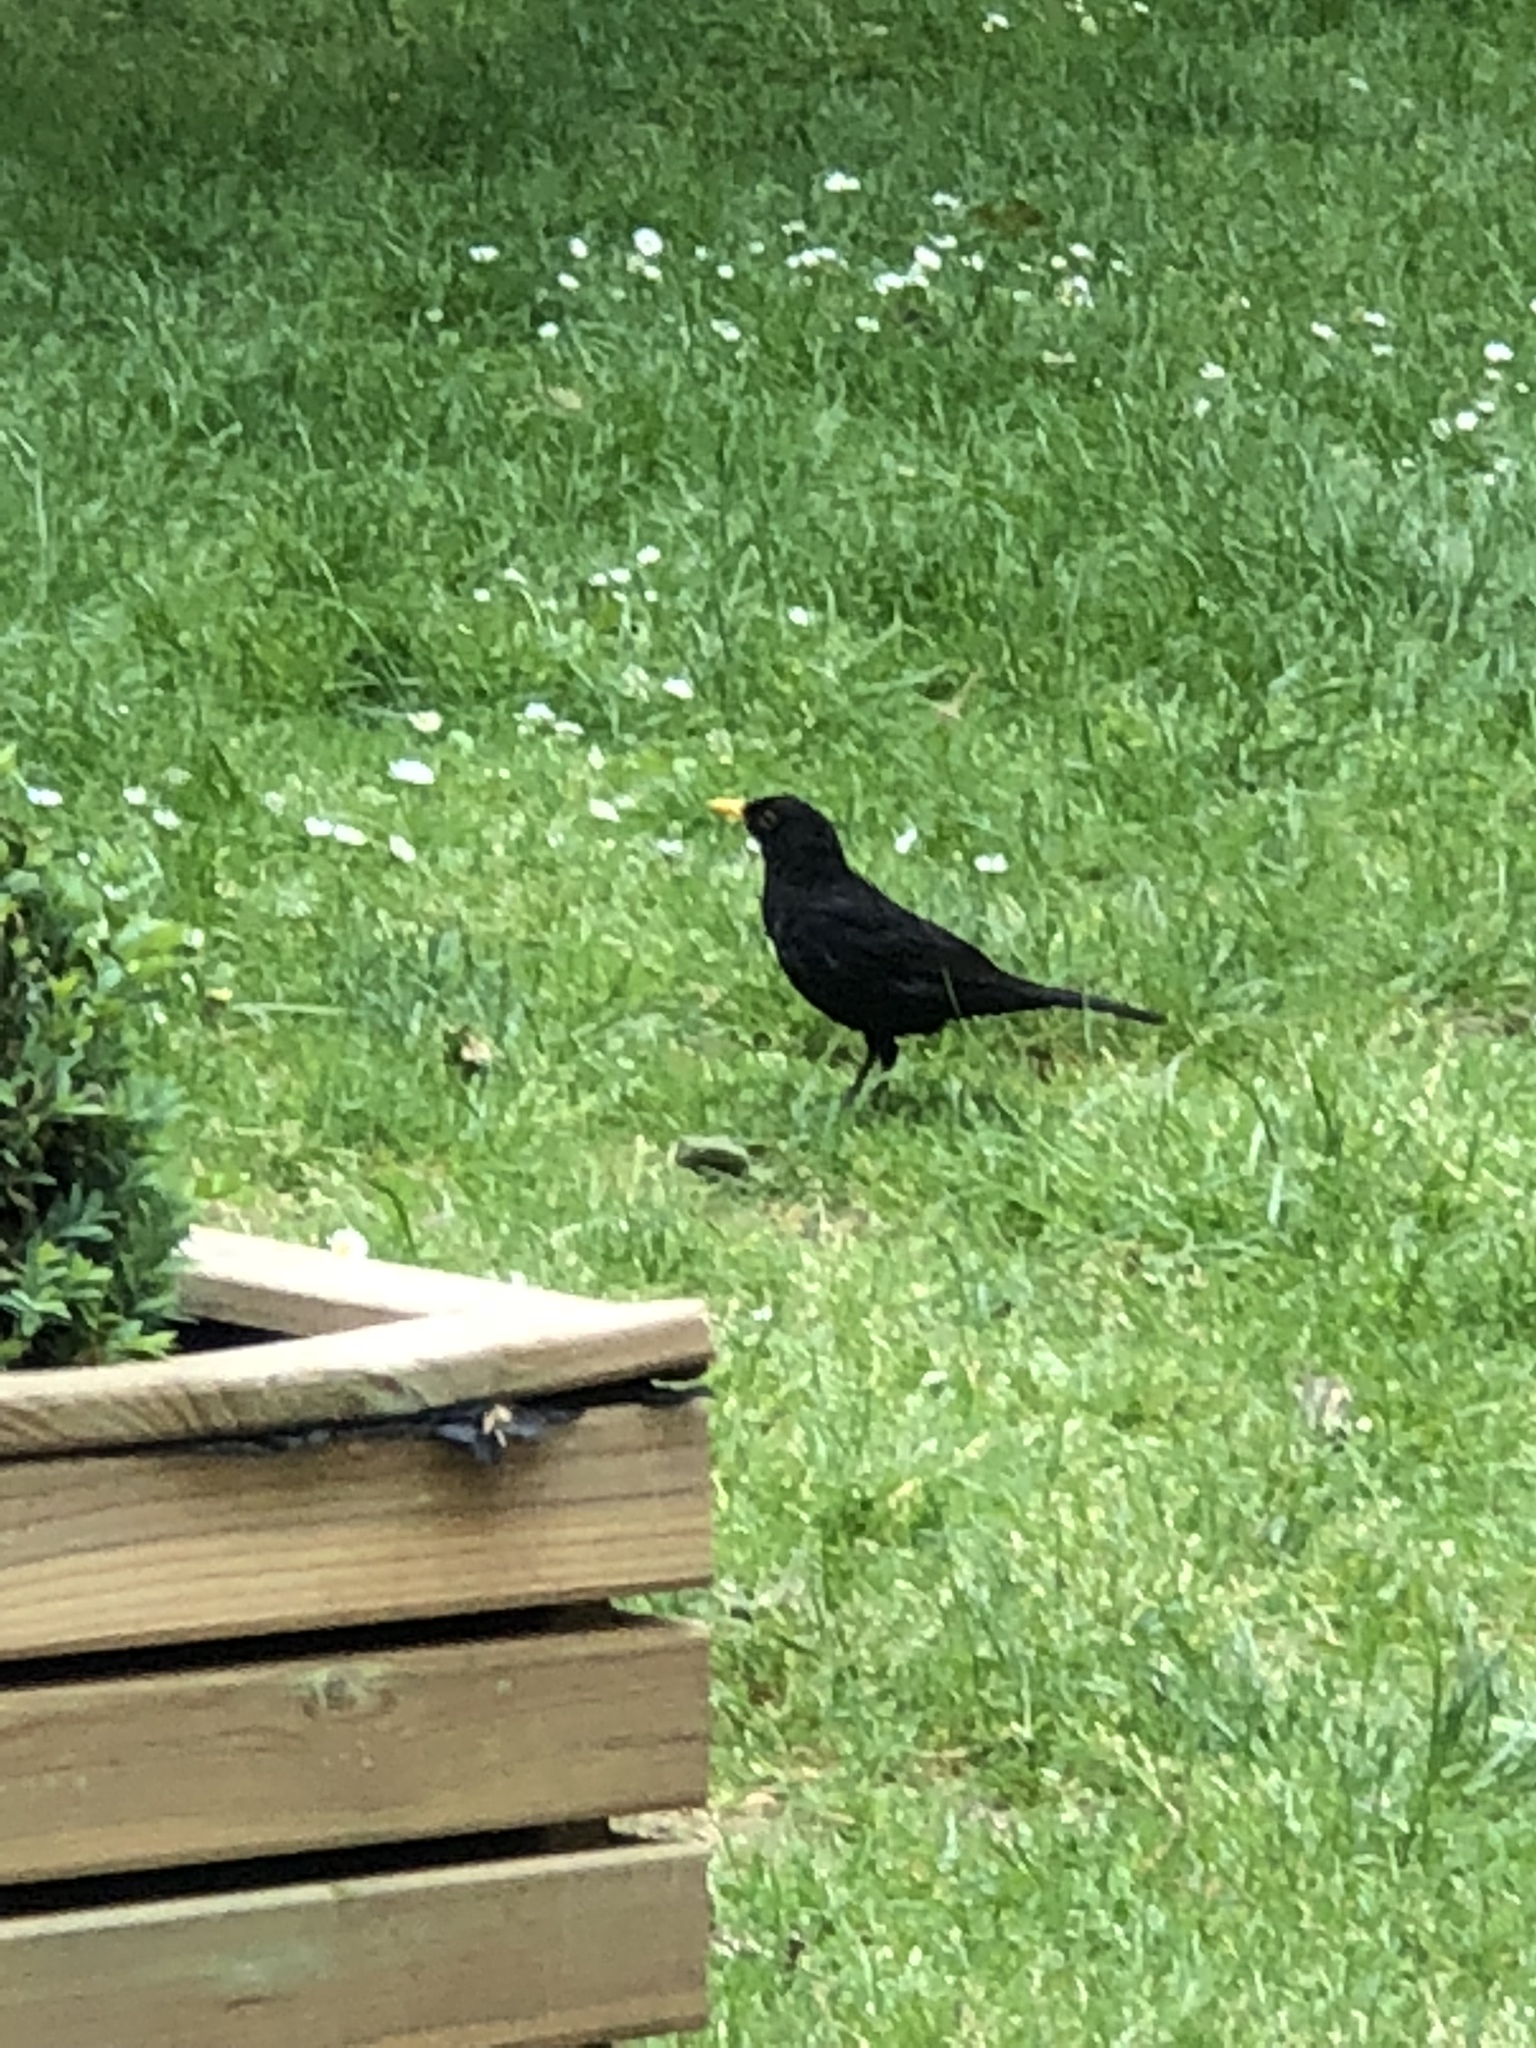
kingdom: Animalia
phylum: Chordata
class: Aves
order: Passeriformes
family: Turdidae
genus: Turdus
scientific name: Turdus merula
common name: Common blackbird
